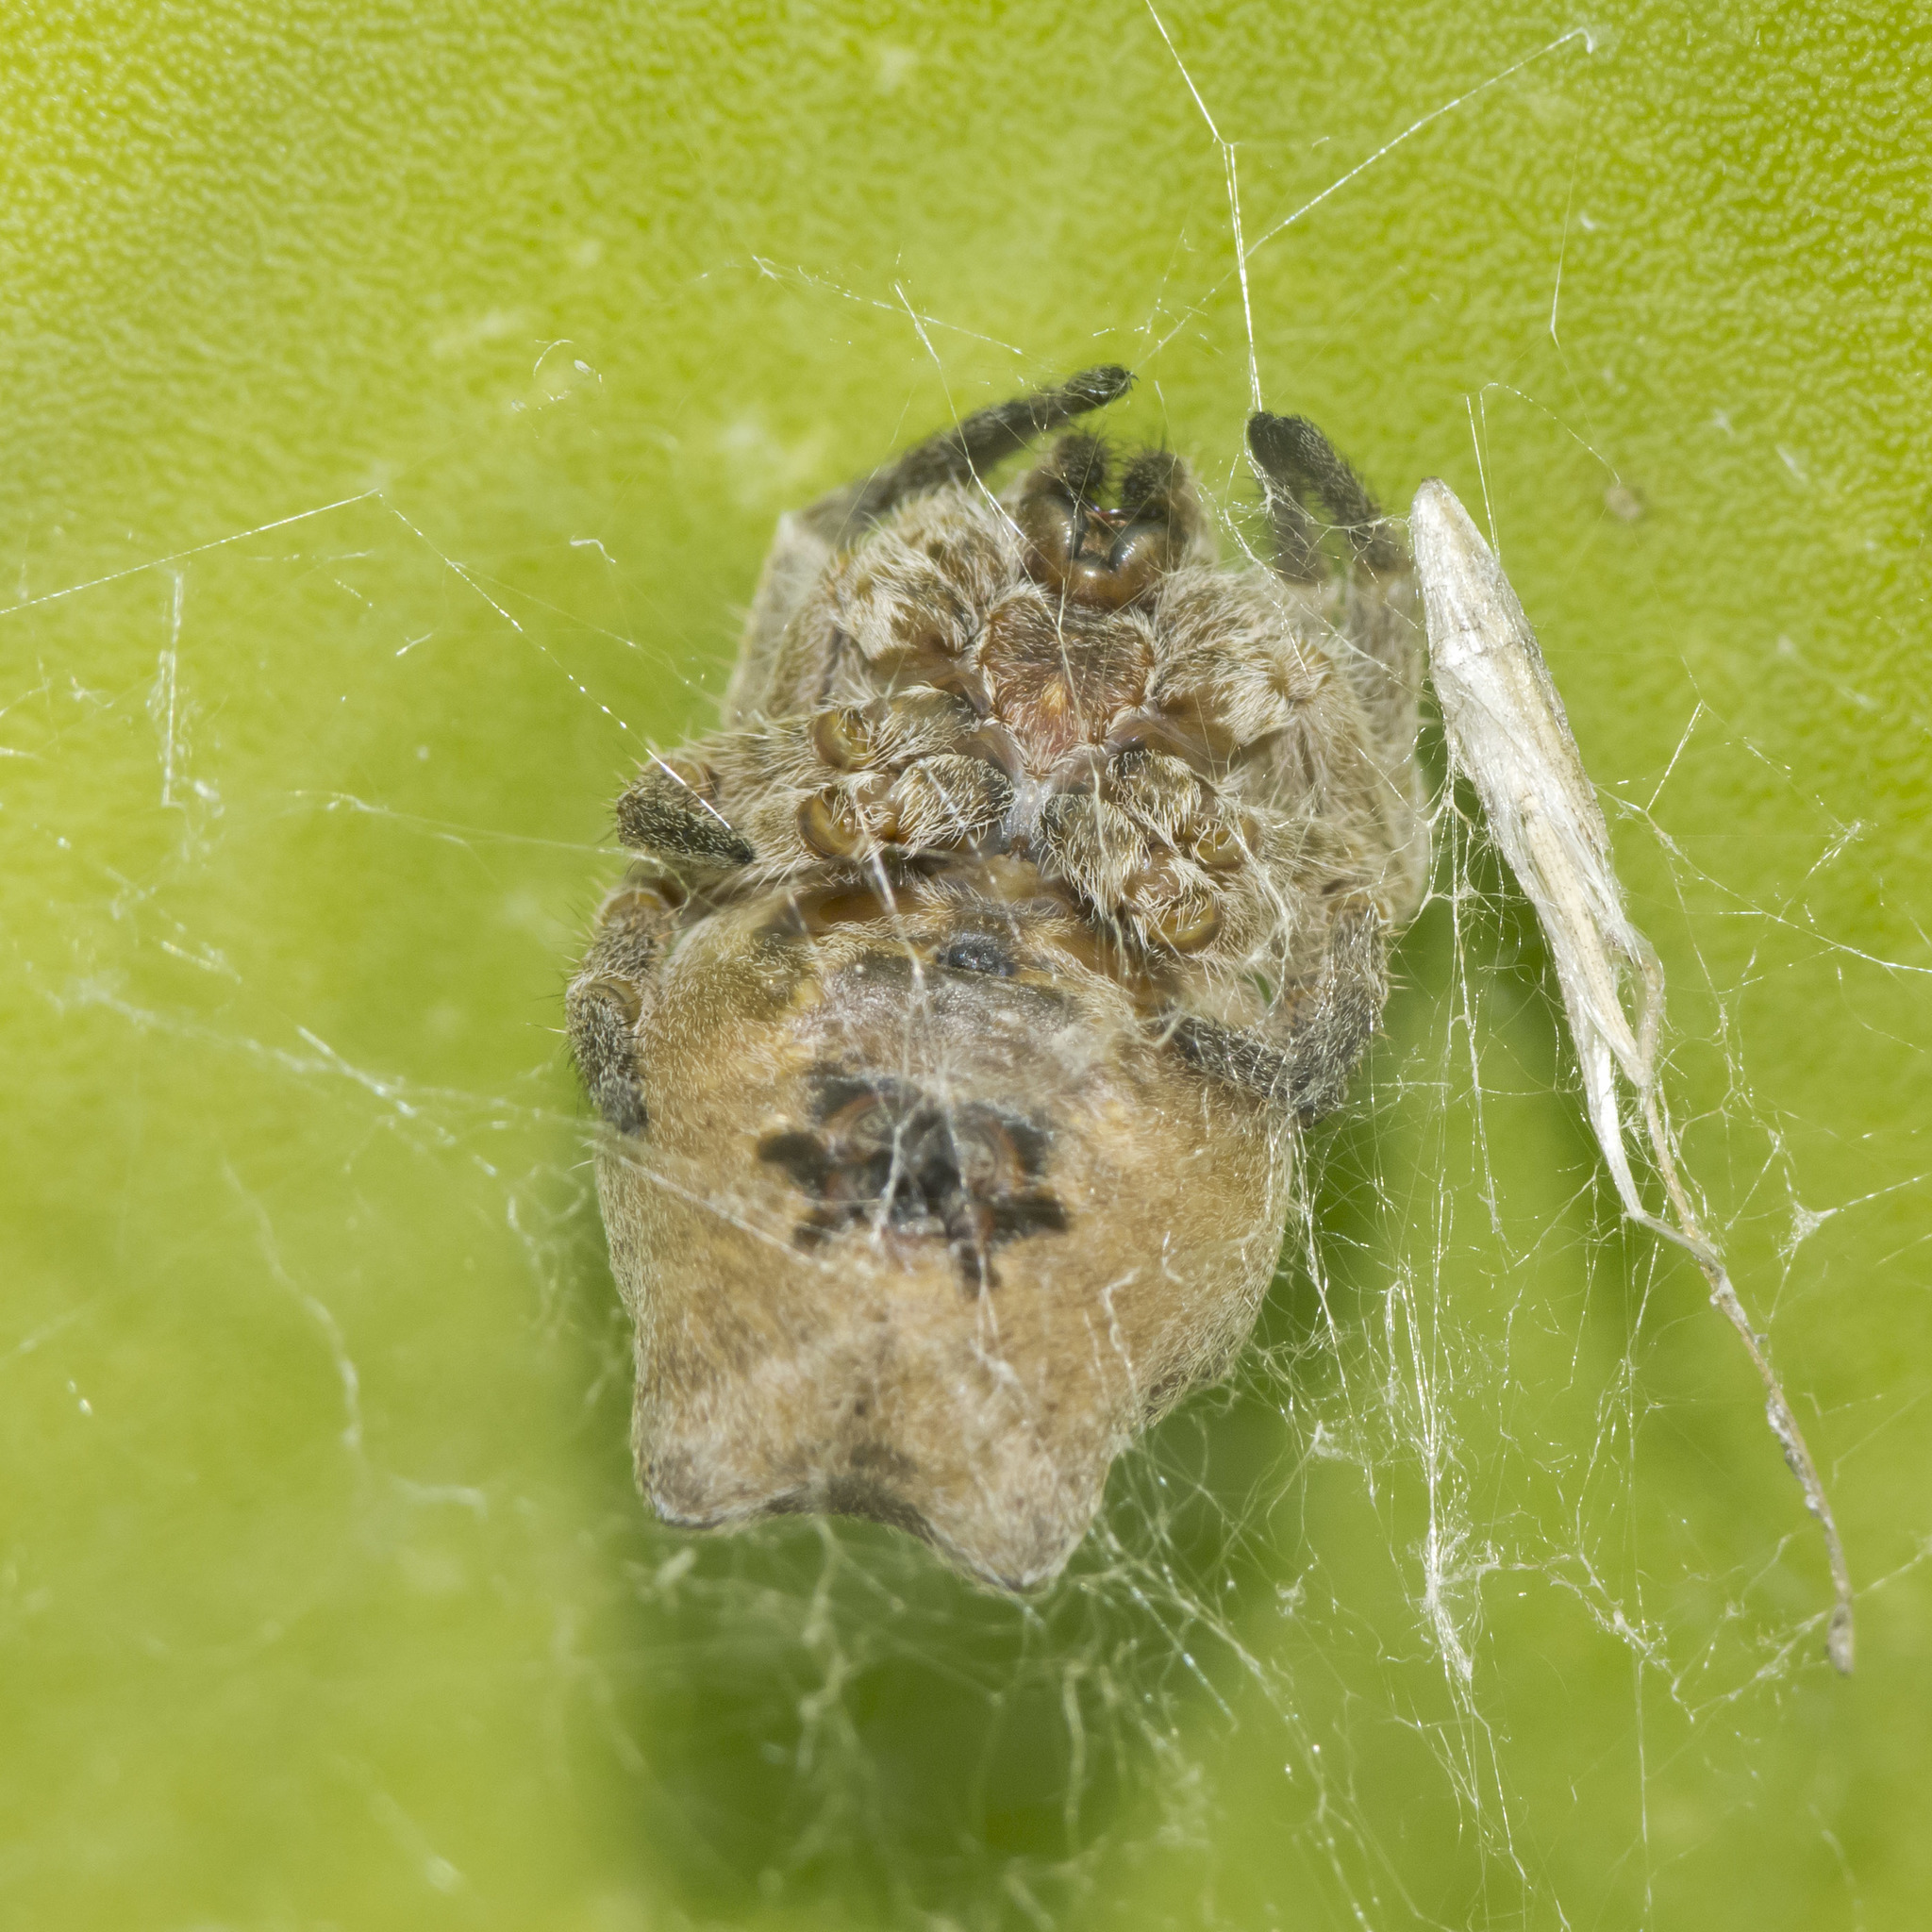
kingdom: Animalia
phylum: Arthropoda
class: Arachnida
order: Araneae
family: Araneidae
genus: Cyrtophora
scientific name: Cyrtophora citricola
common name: Orb weavers
